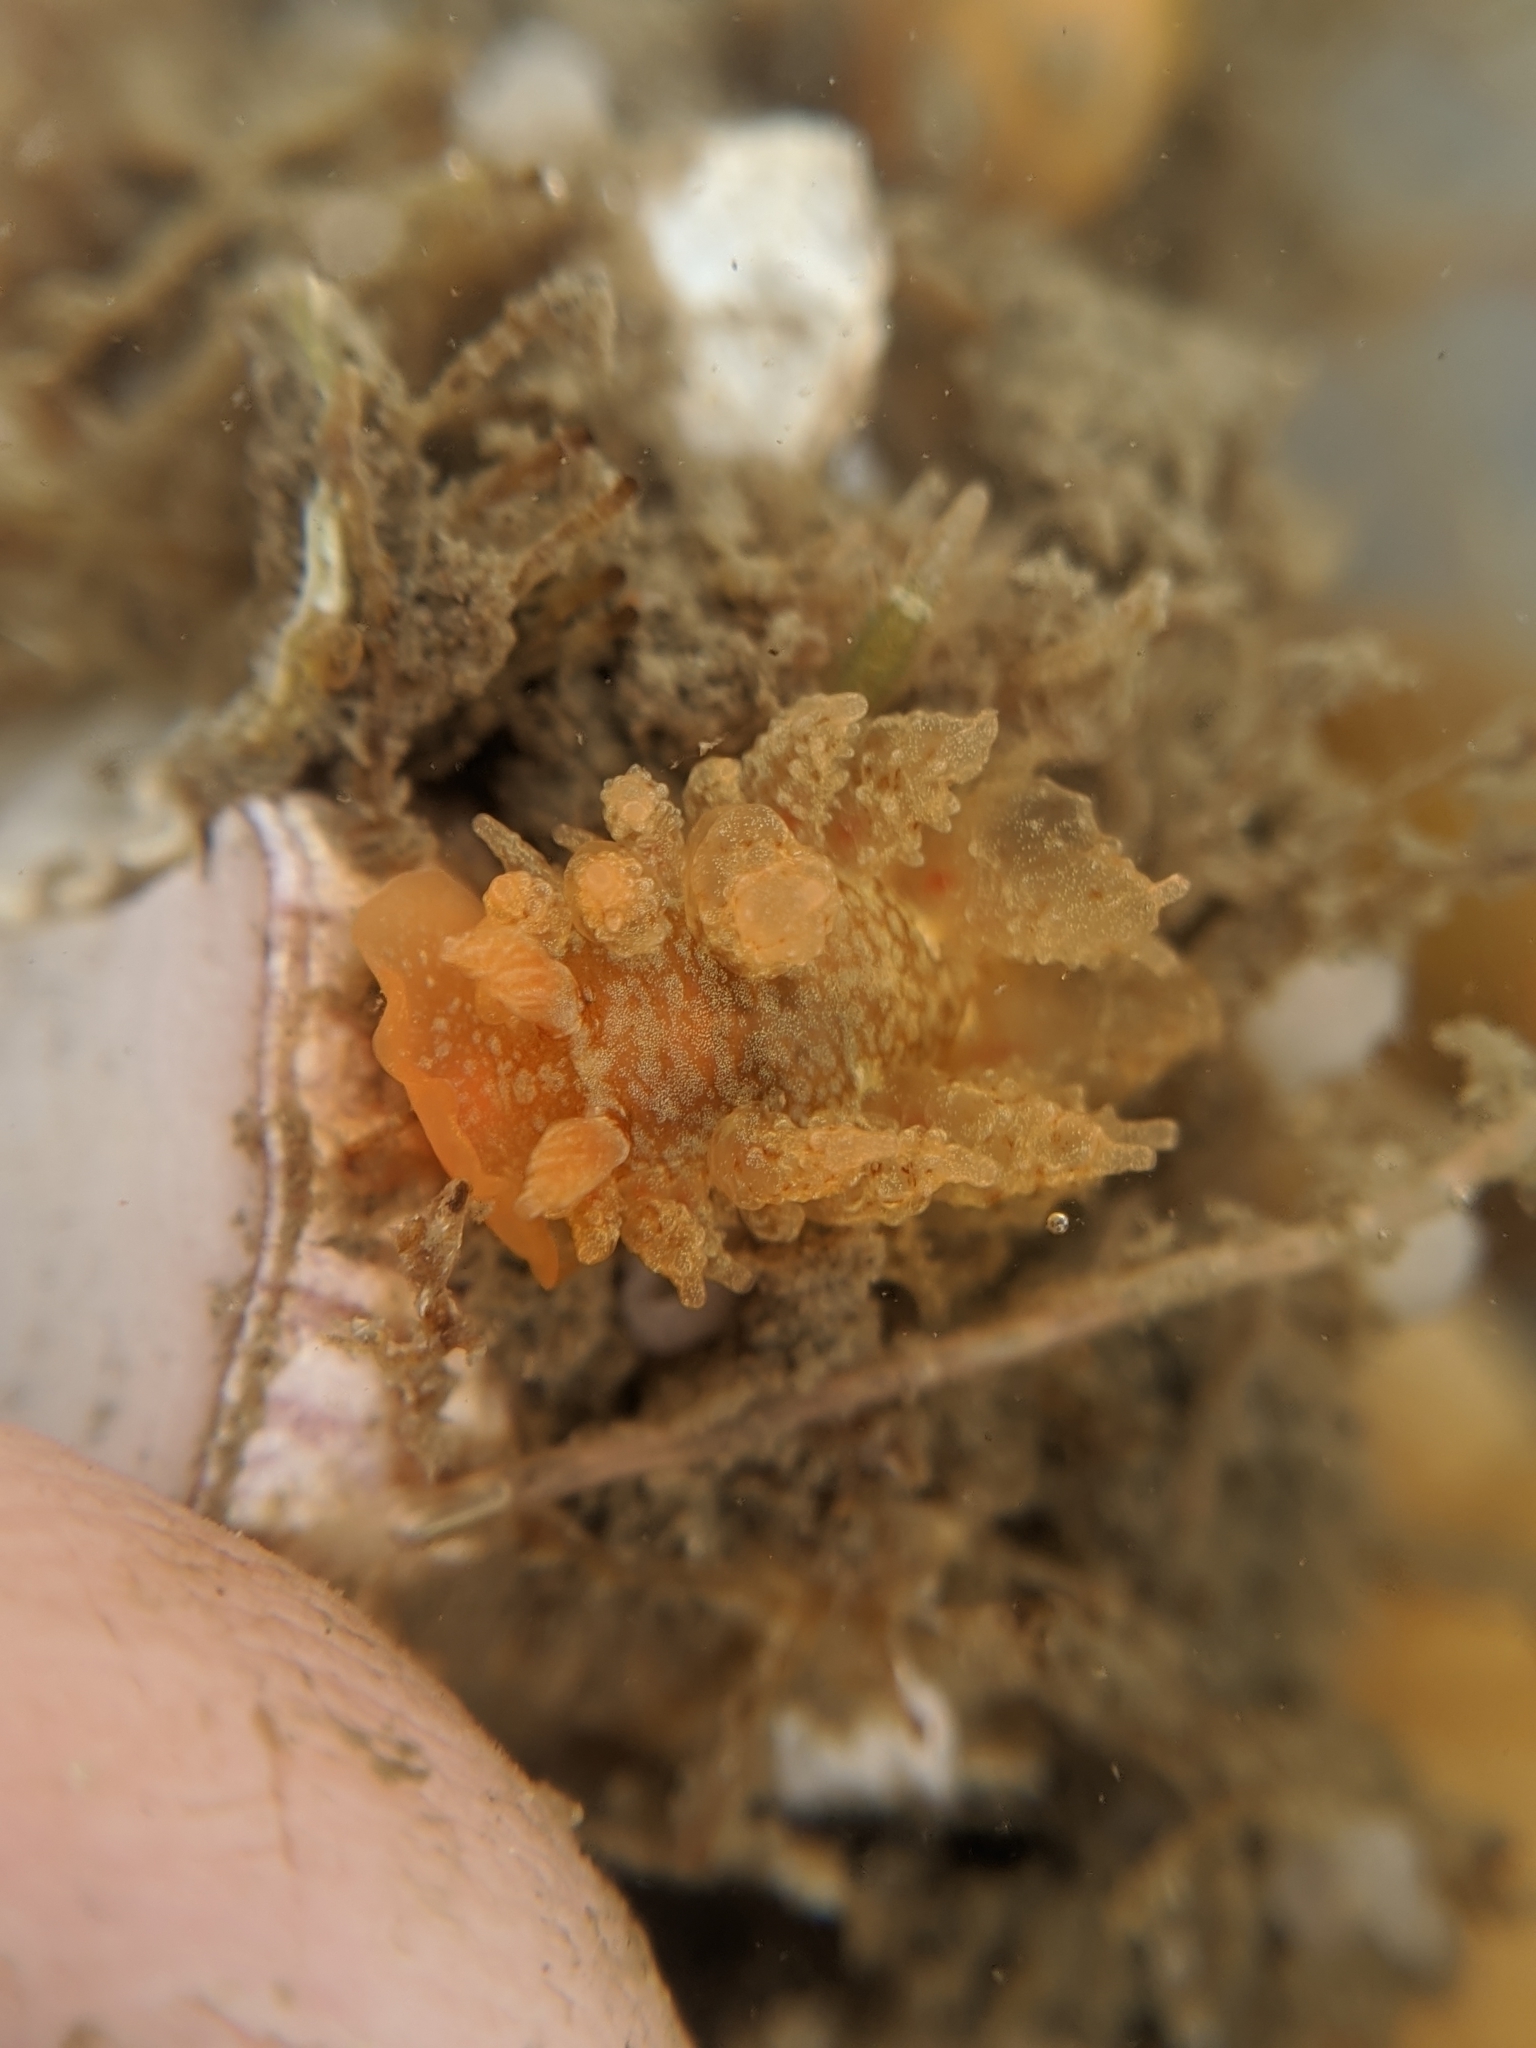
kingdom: Animalia
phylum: Mollusca
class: Gastropoda
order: Nudibranchia
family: Dironidae
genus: Dirona
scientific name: Dirona picta
